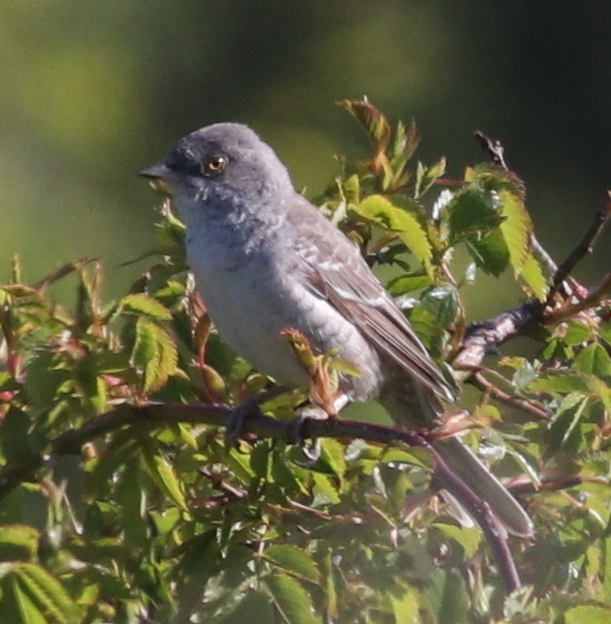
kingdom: Animalia
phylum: Chordata
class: Aves
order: Passeriformes
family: Sylviidae
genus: Sylvia
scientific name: Sylvia nisoria
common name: Barred warbler
